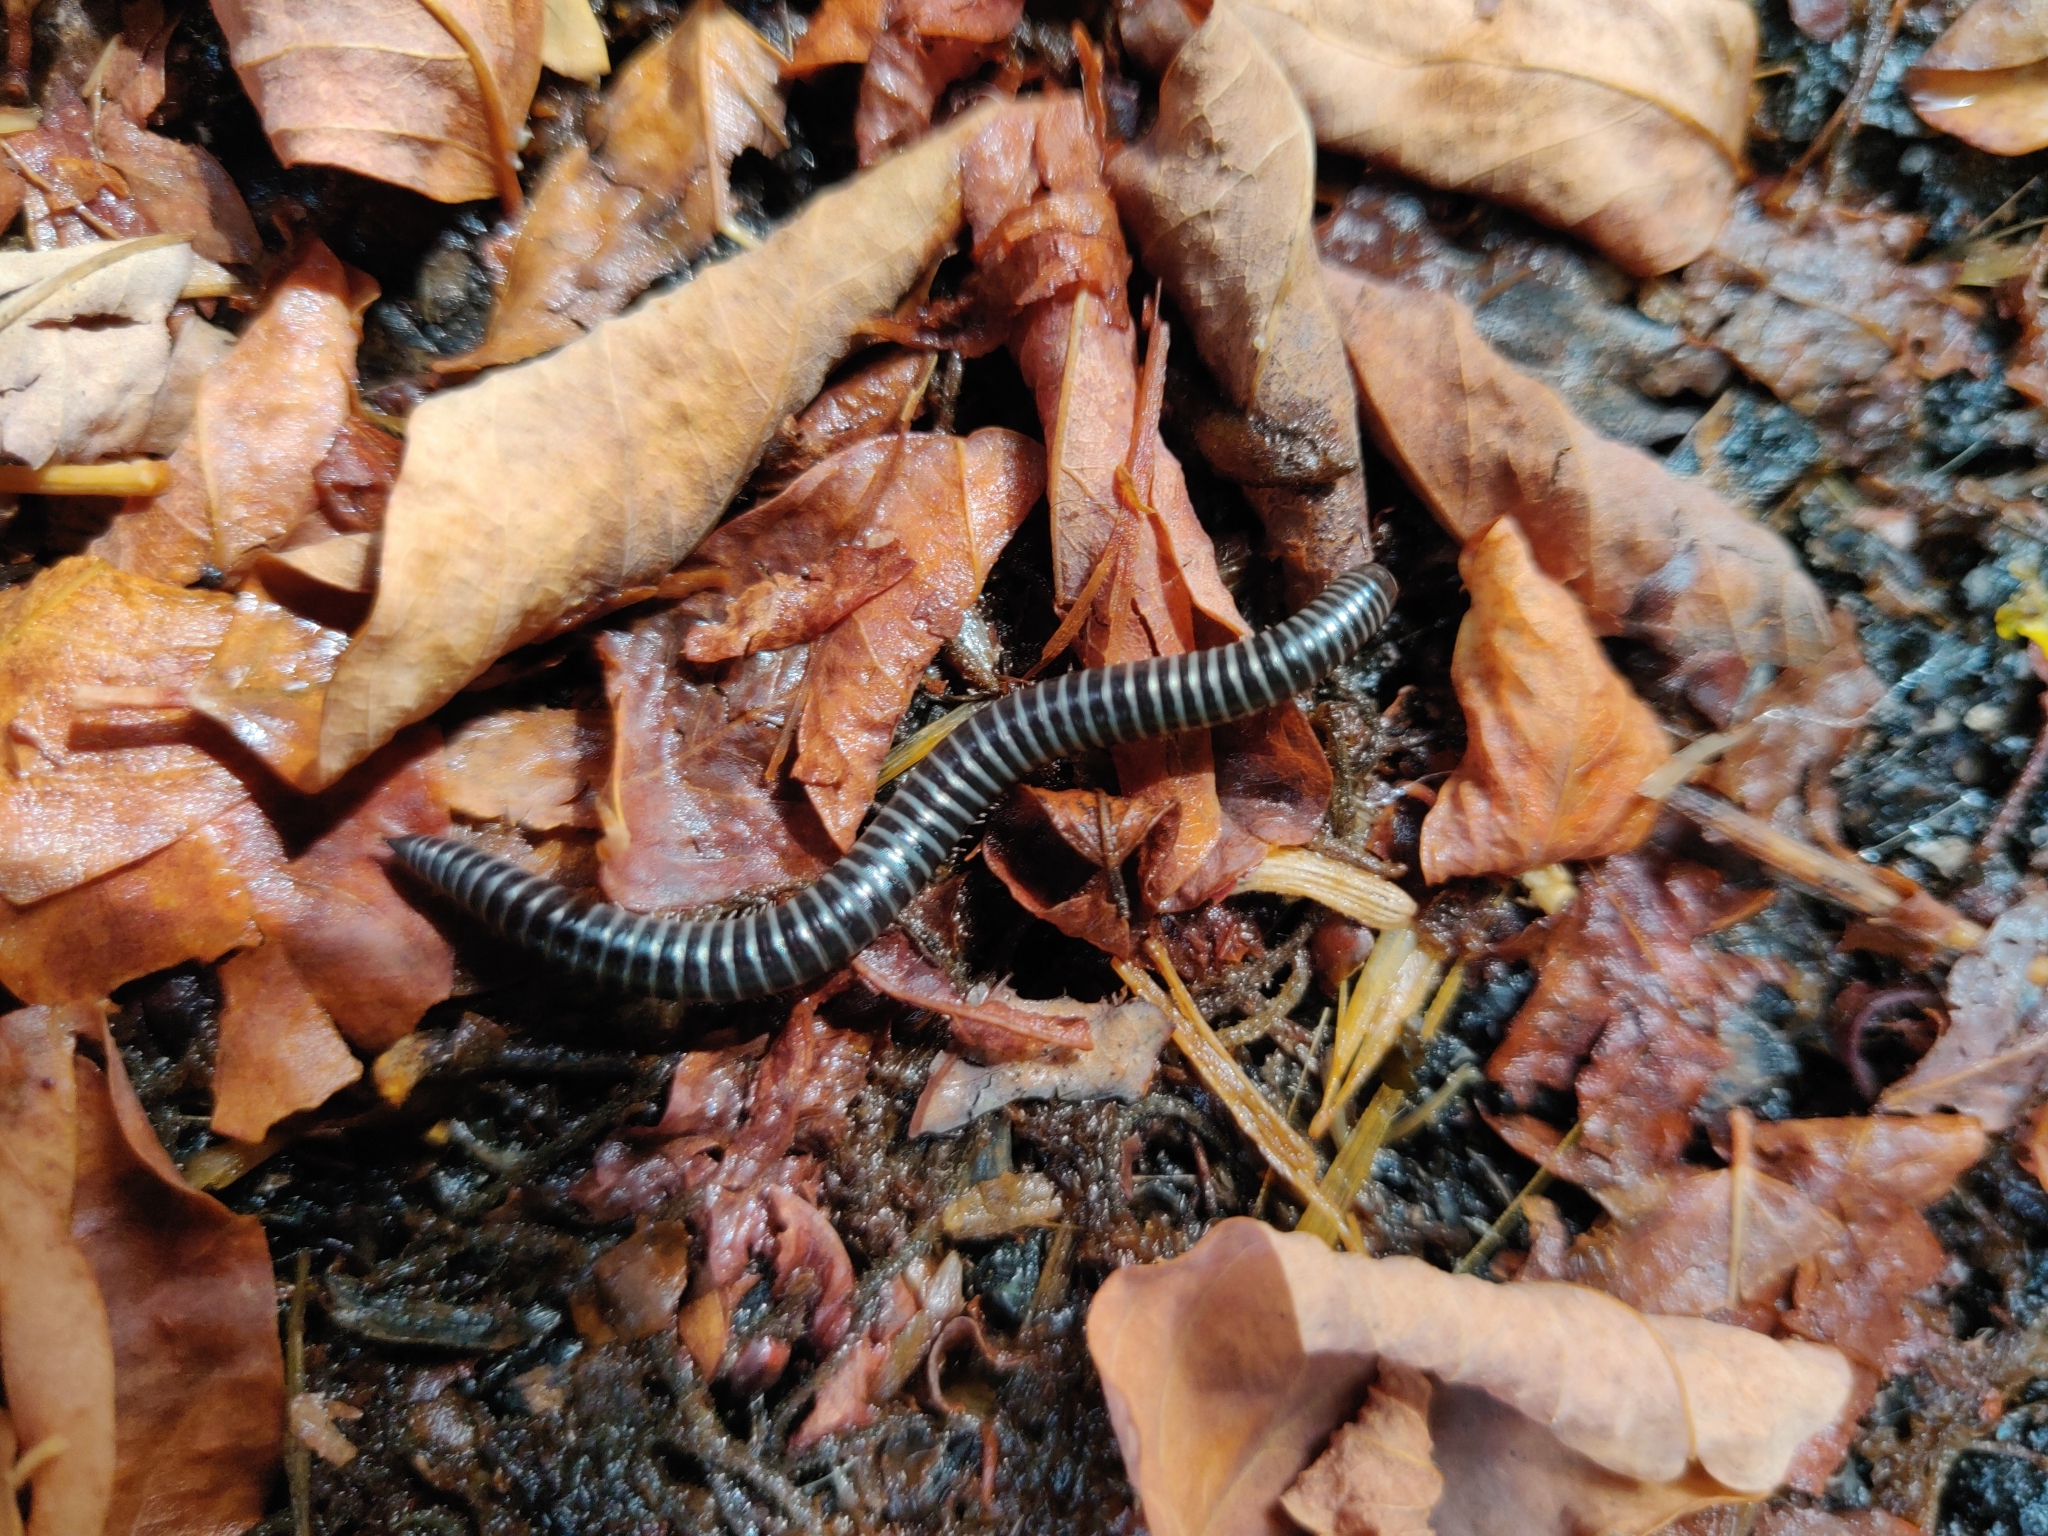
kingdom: Animalia
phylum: Arthropoda
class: Diplopoda
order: Julida
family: Julidae
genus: Ommatoiulus
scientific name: Ommatoiulus sabulosus
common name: Striped millipede
